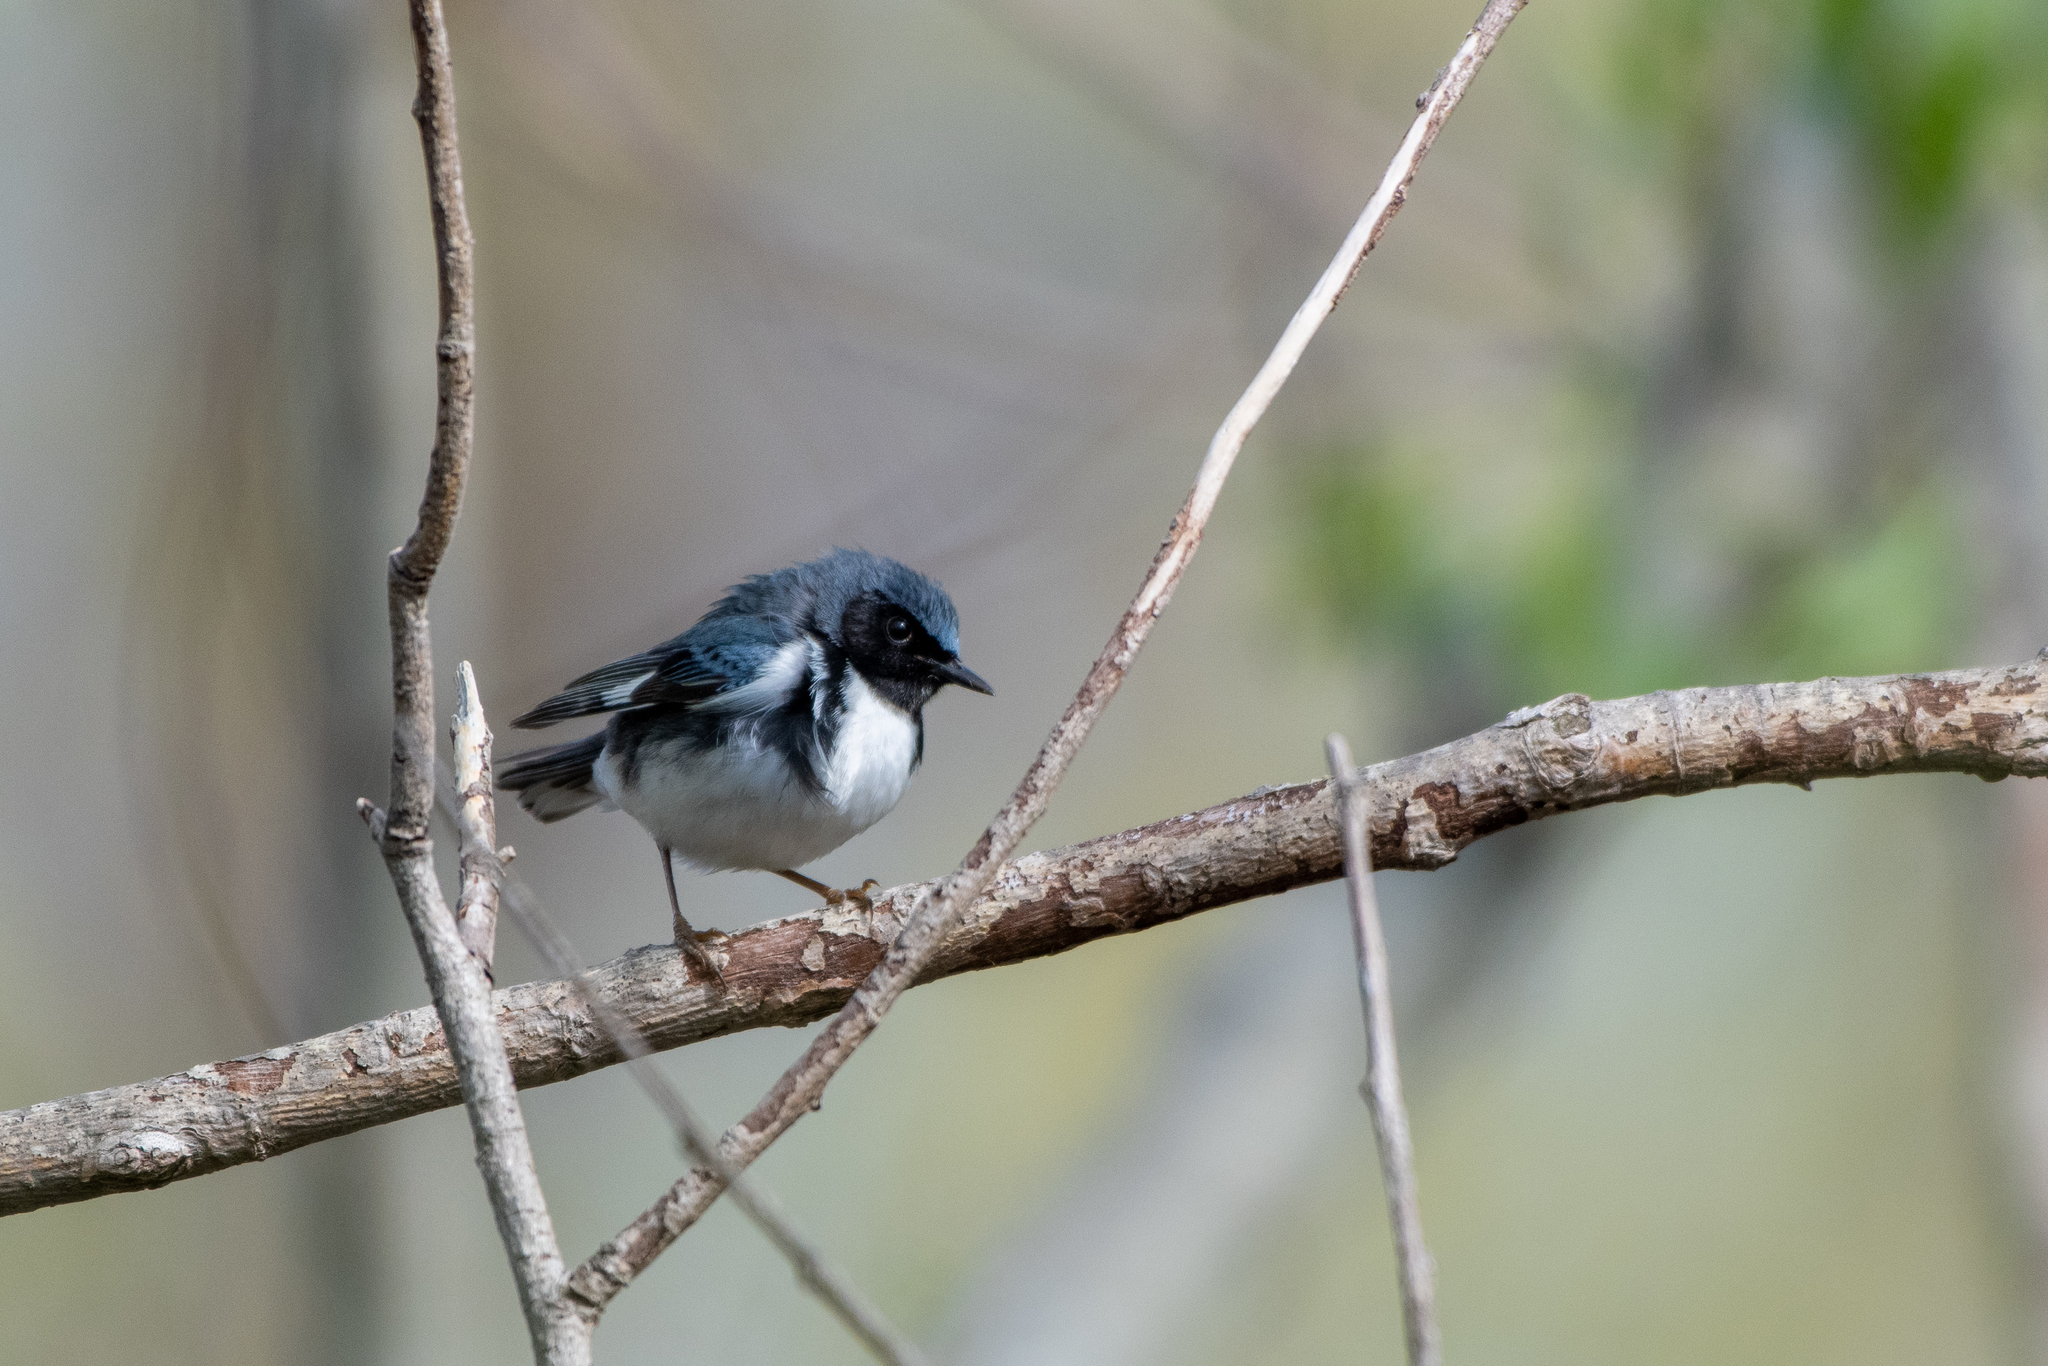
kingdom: Animalia
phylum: Chordata
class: Aves
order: Passeriformes
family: Parulidae
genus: Setophaga
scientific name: Setophaga caerulescens
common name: Black-throated blue warbler
